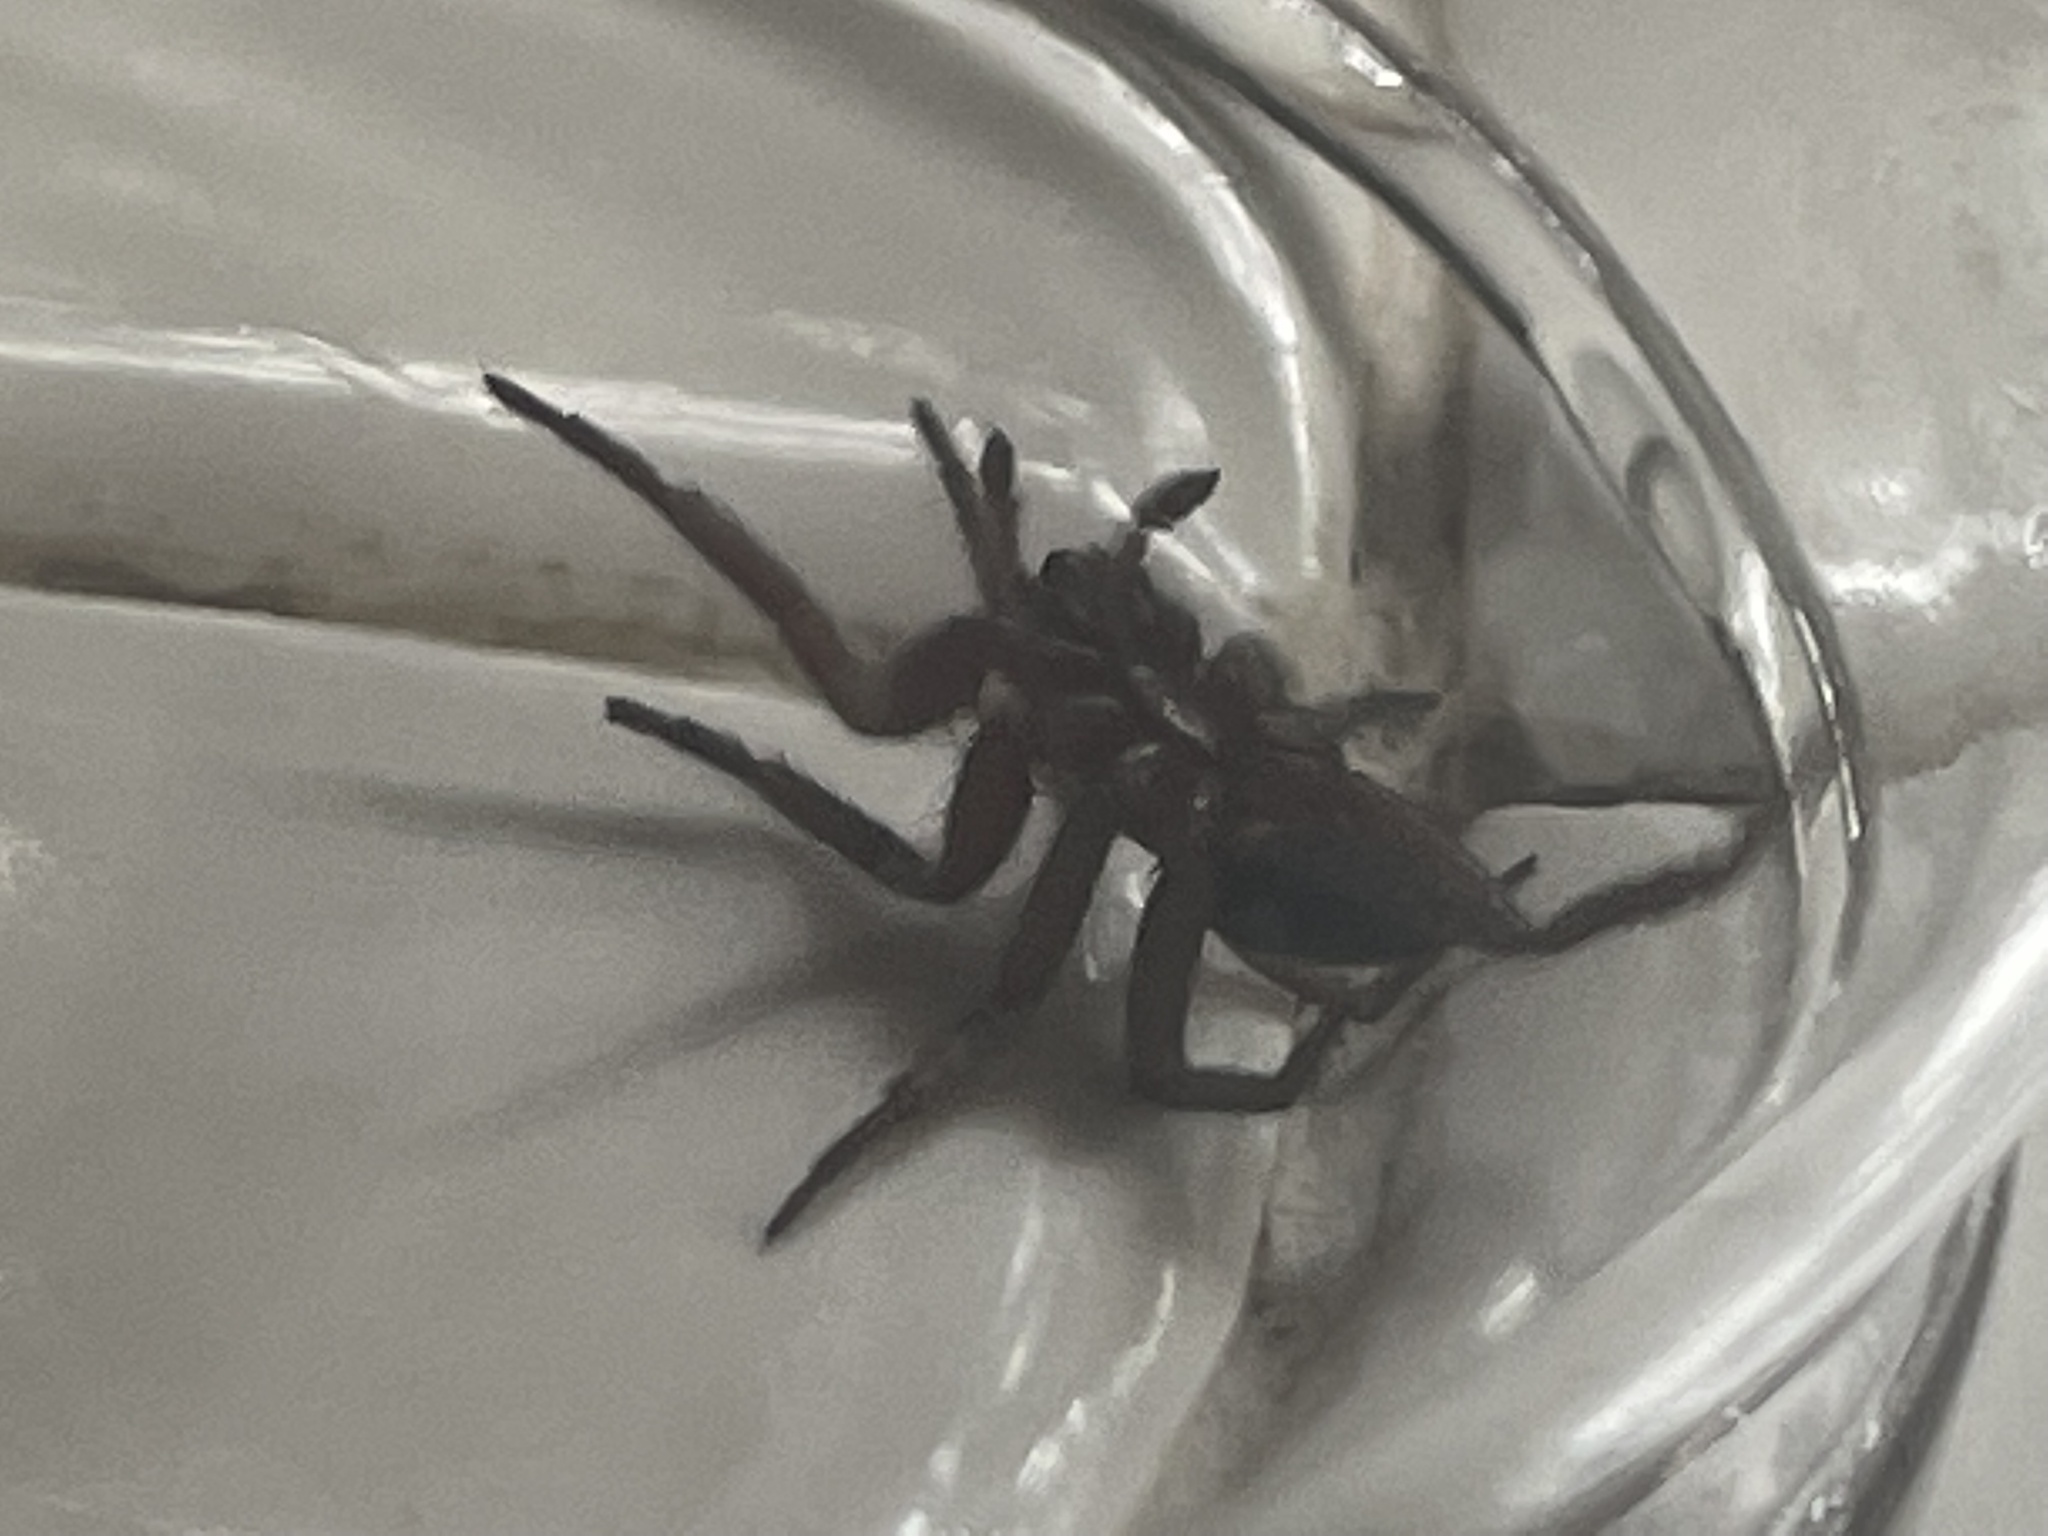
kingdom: Animalia
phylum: Arthropoda
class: Arachnida
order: Araneae
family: Gnaphosidae
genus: Scotophaeus
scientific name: Scotophaeus blackwalli
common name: Mouse spider
